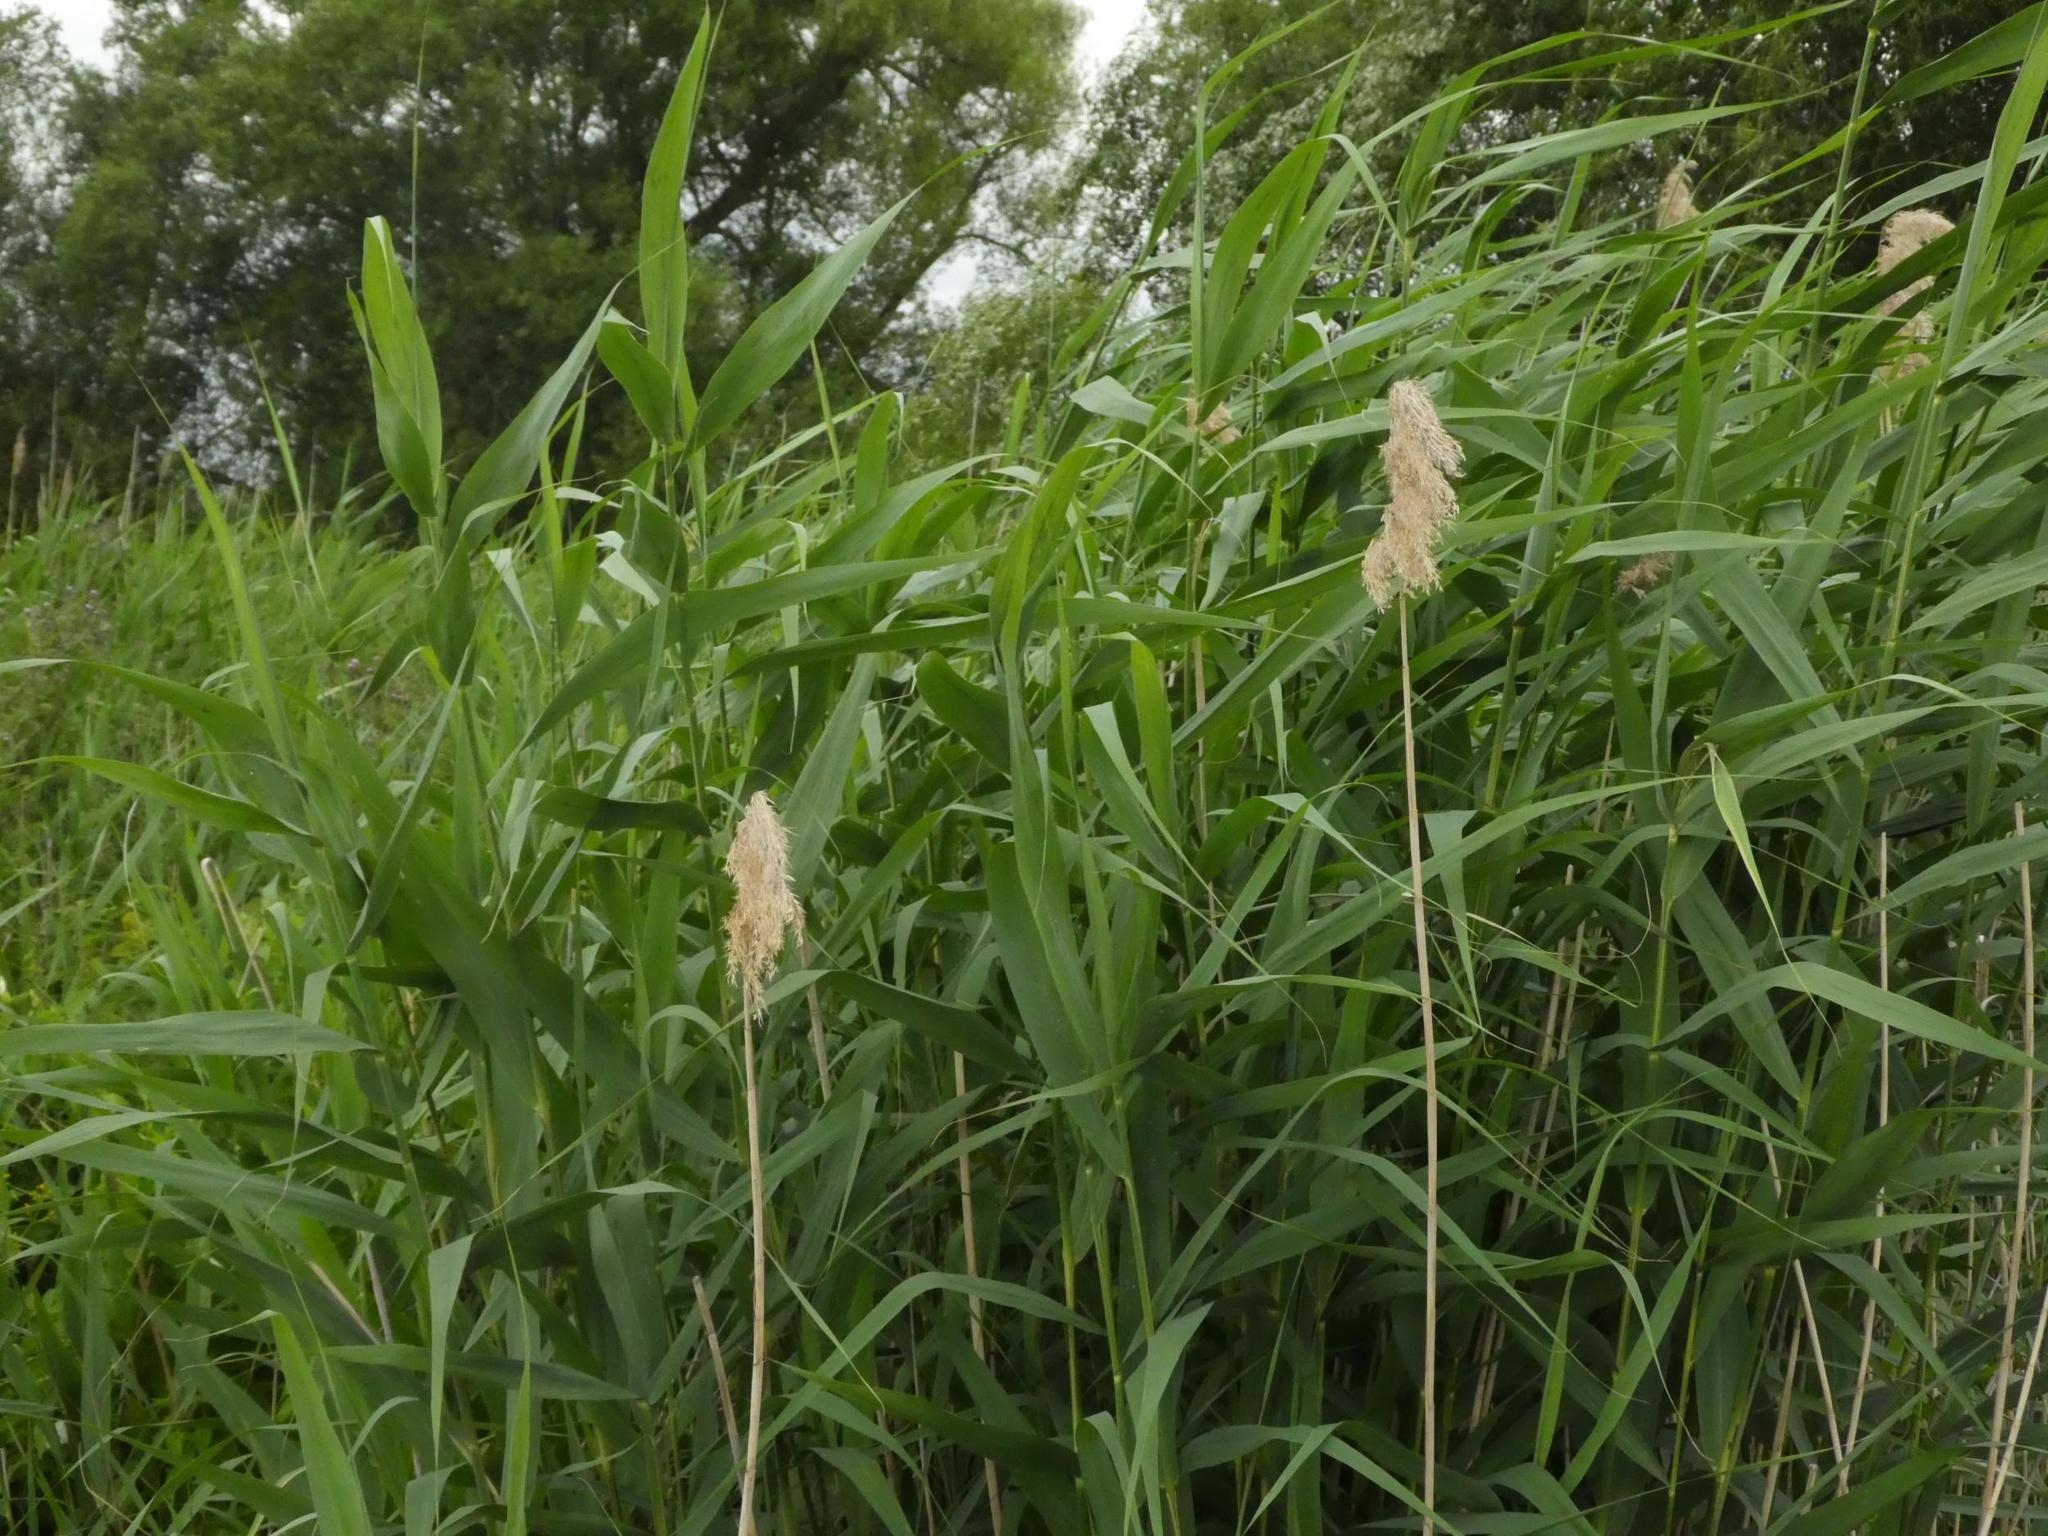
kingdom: Plantae
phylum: Tracheophyta
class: Liliopsida
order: Poales
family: Poaceae
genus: Phragmites
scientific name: Phragmites australis
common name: Common reed
